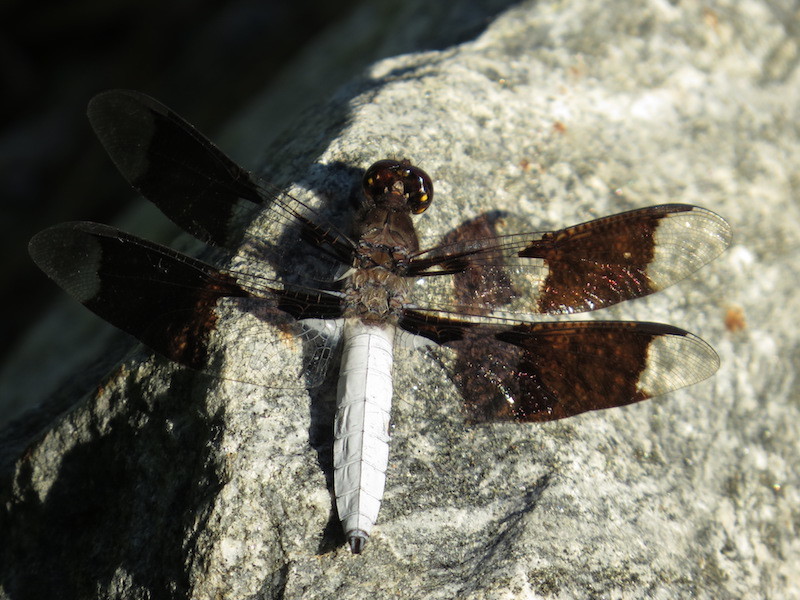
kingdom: Animalia
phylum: Arthropoda
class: Insecta
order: Odonata
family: Libellulidae
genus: Plathemis
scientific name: Plathemis lydia
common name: Common whitetail
